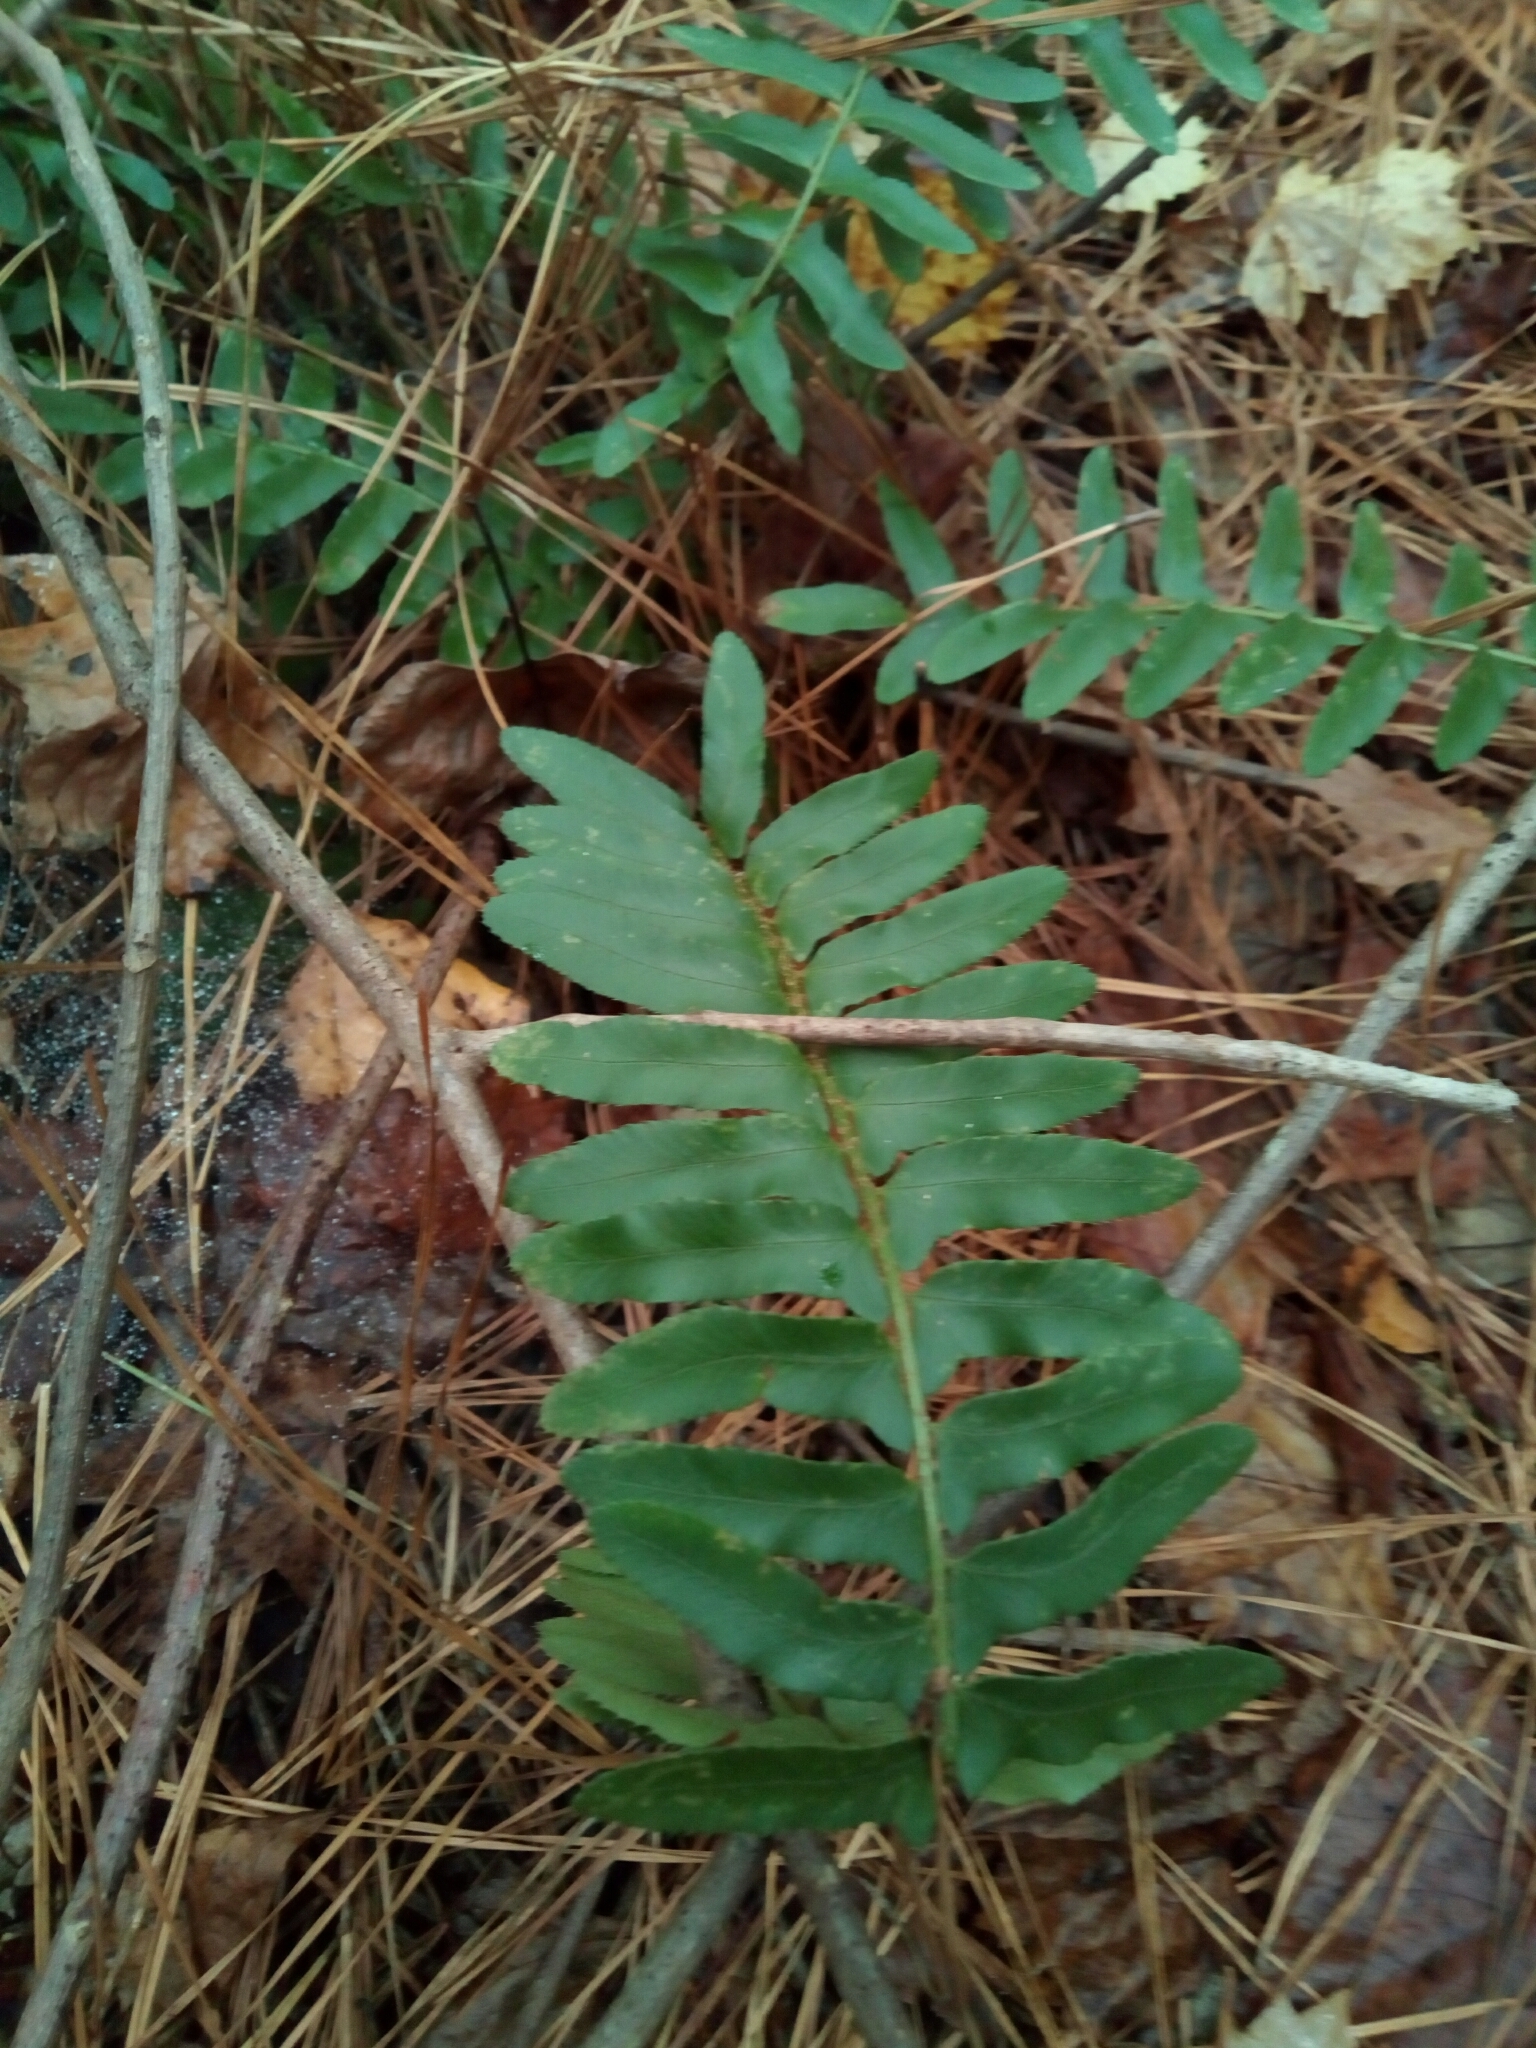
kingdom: Plantae
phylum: Tracheophyta
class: Polypodiopsida
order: Polypodiales
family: Dryopteridaceae
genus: Polystichum
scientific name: Polystichum acrostichoides
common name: Christmas fern
